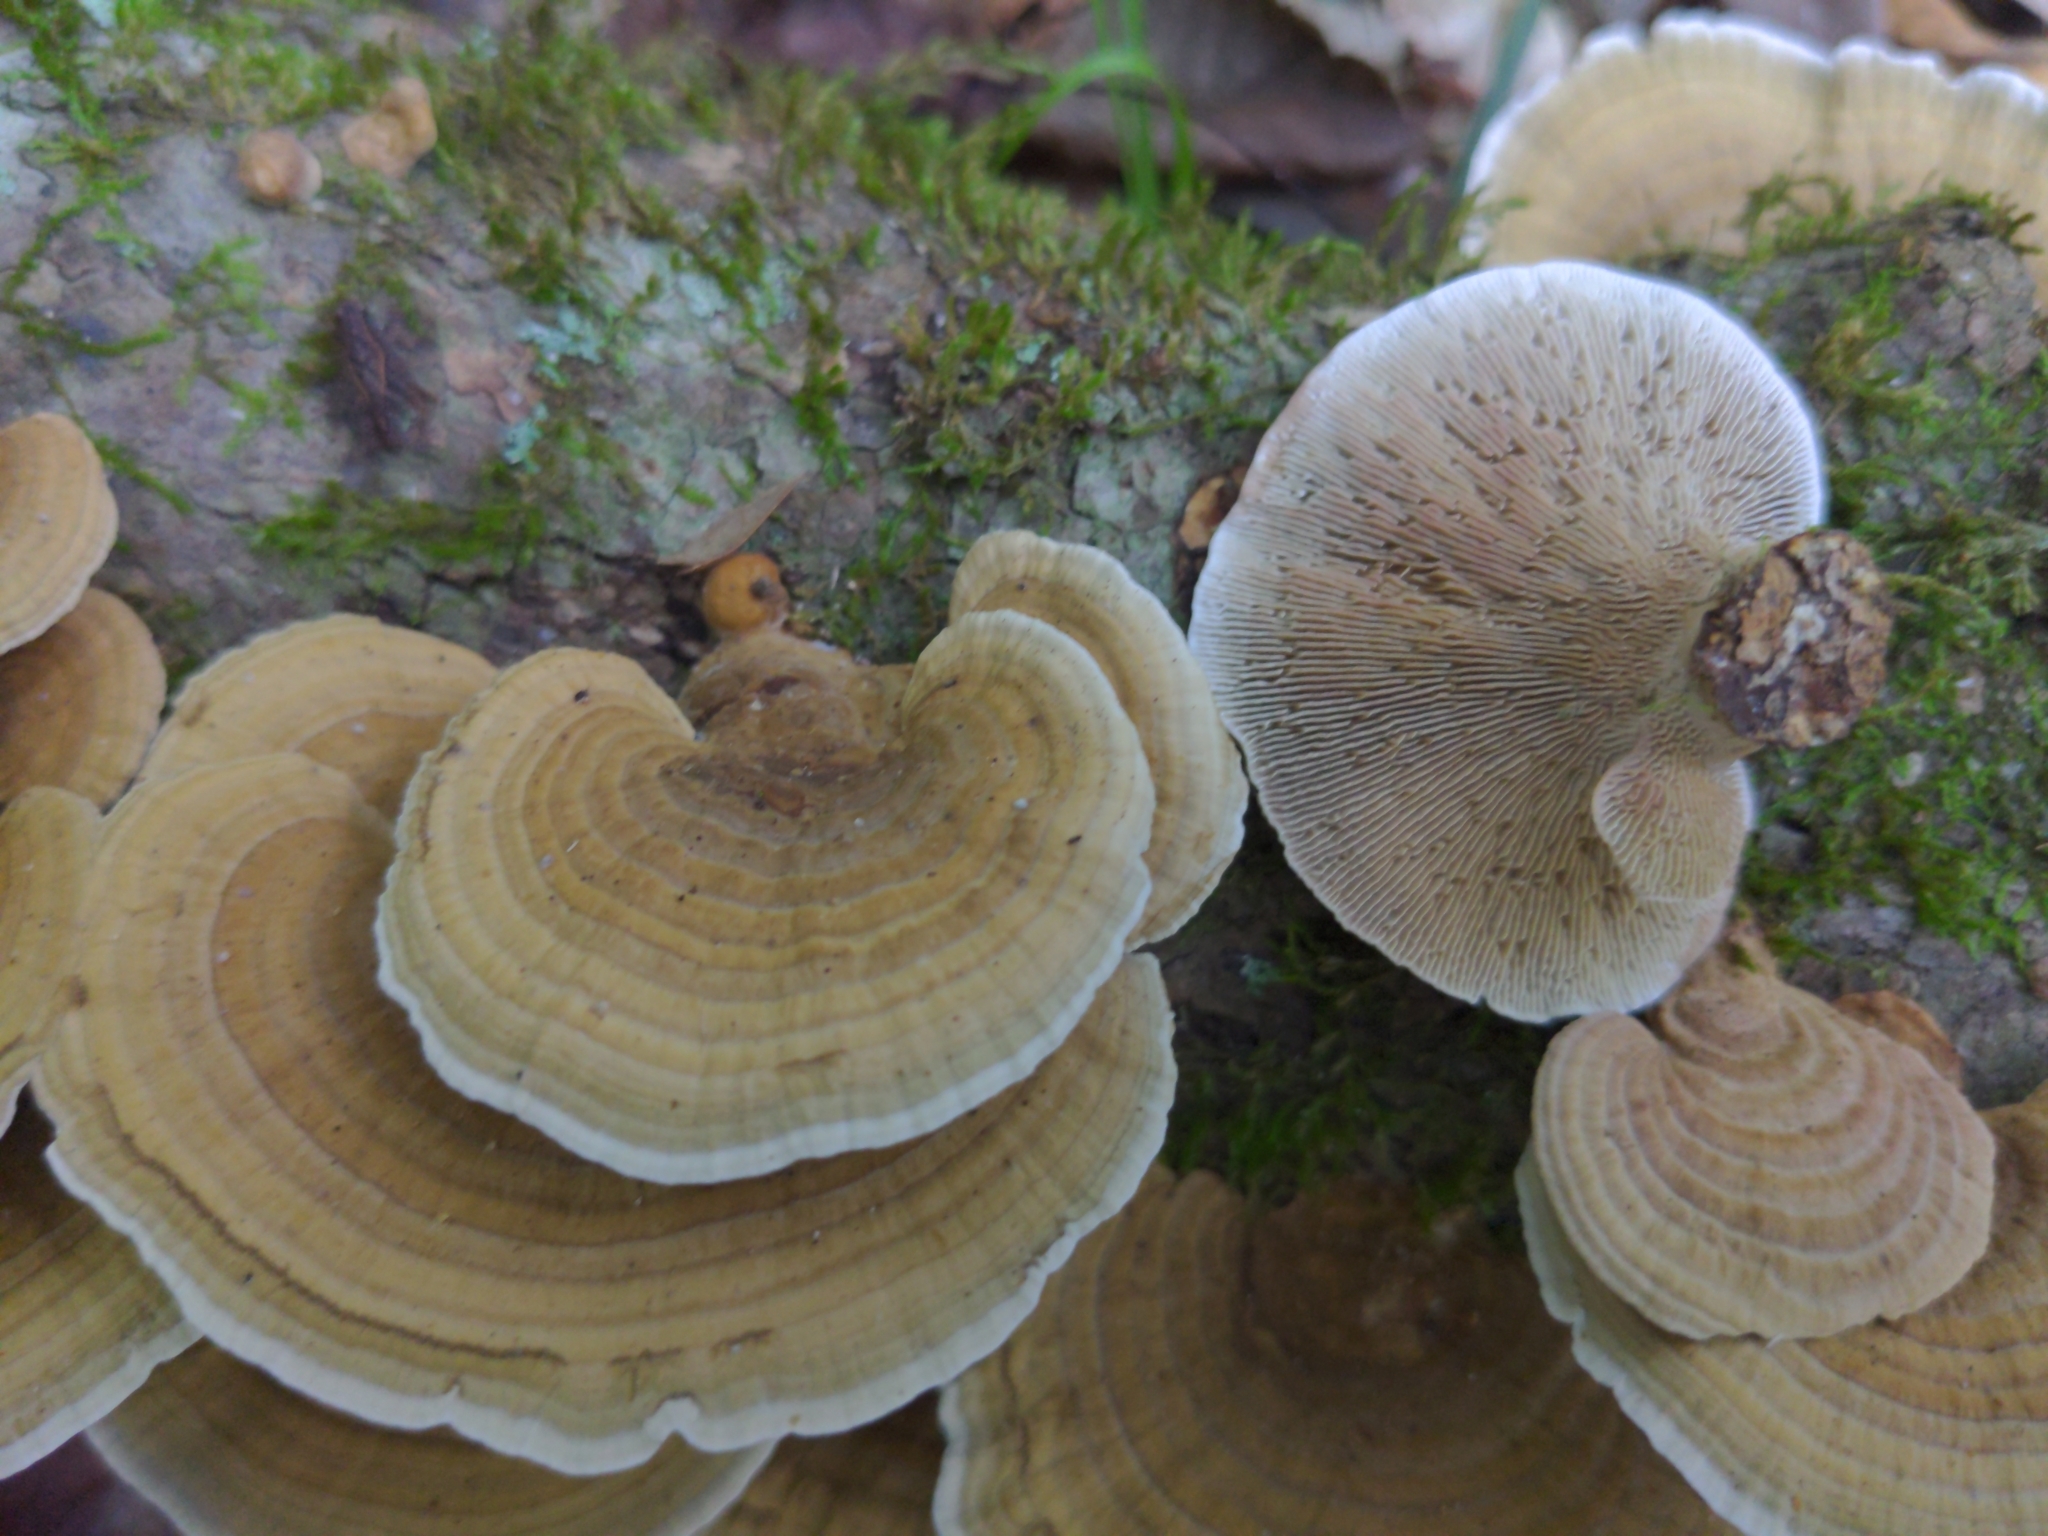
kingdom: Fungi
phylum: Basidiomycota
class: Agaricomycetes
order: Polyporales
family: Polyporaceae
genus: Daedaleopsis
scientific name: Daedaleopsis confragosa
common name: Blushing bracket
